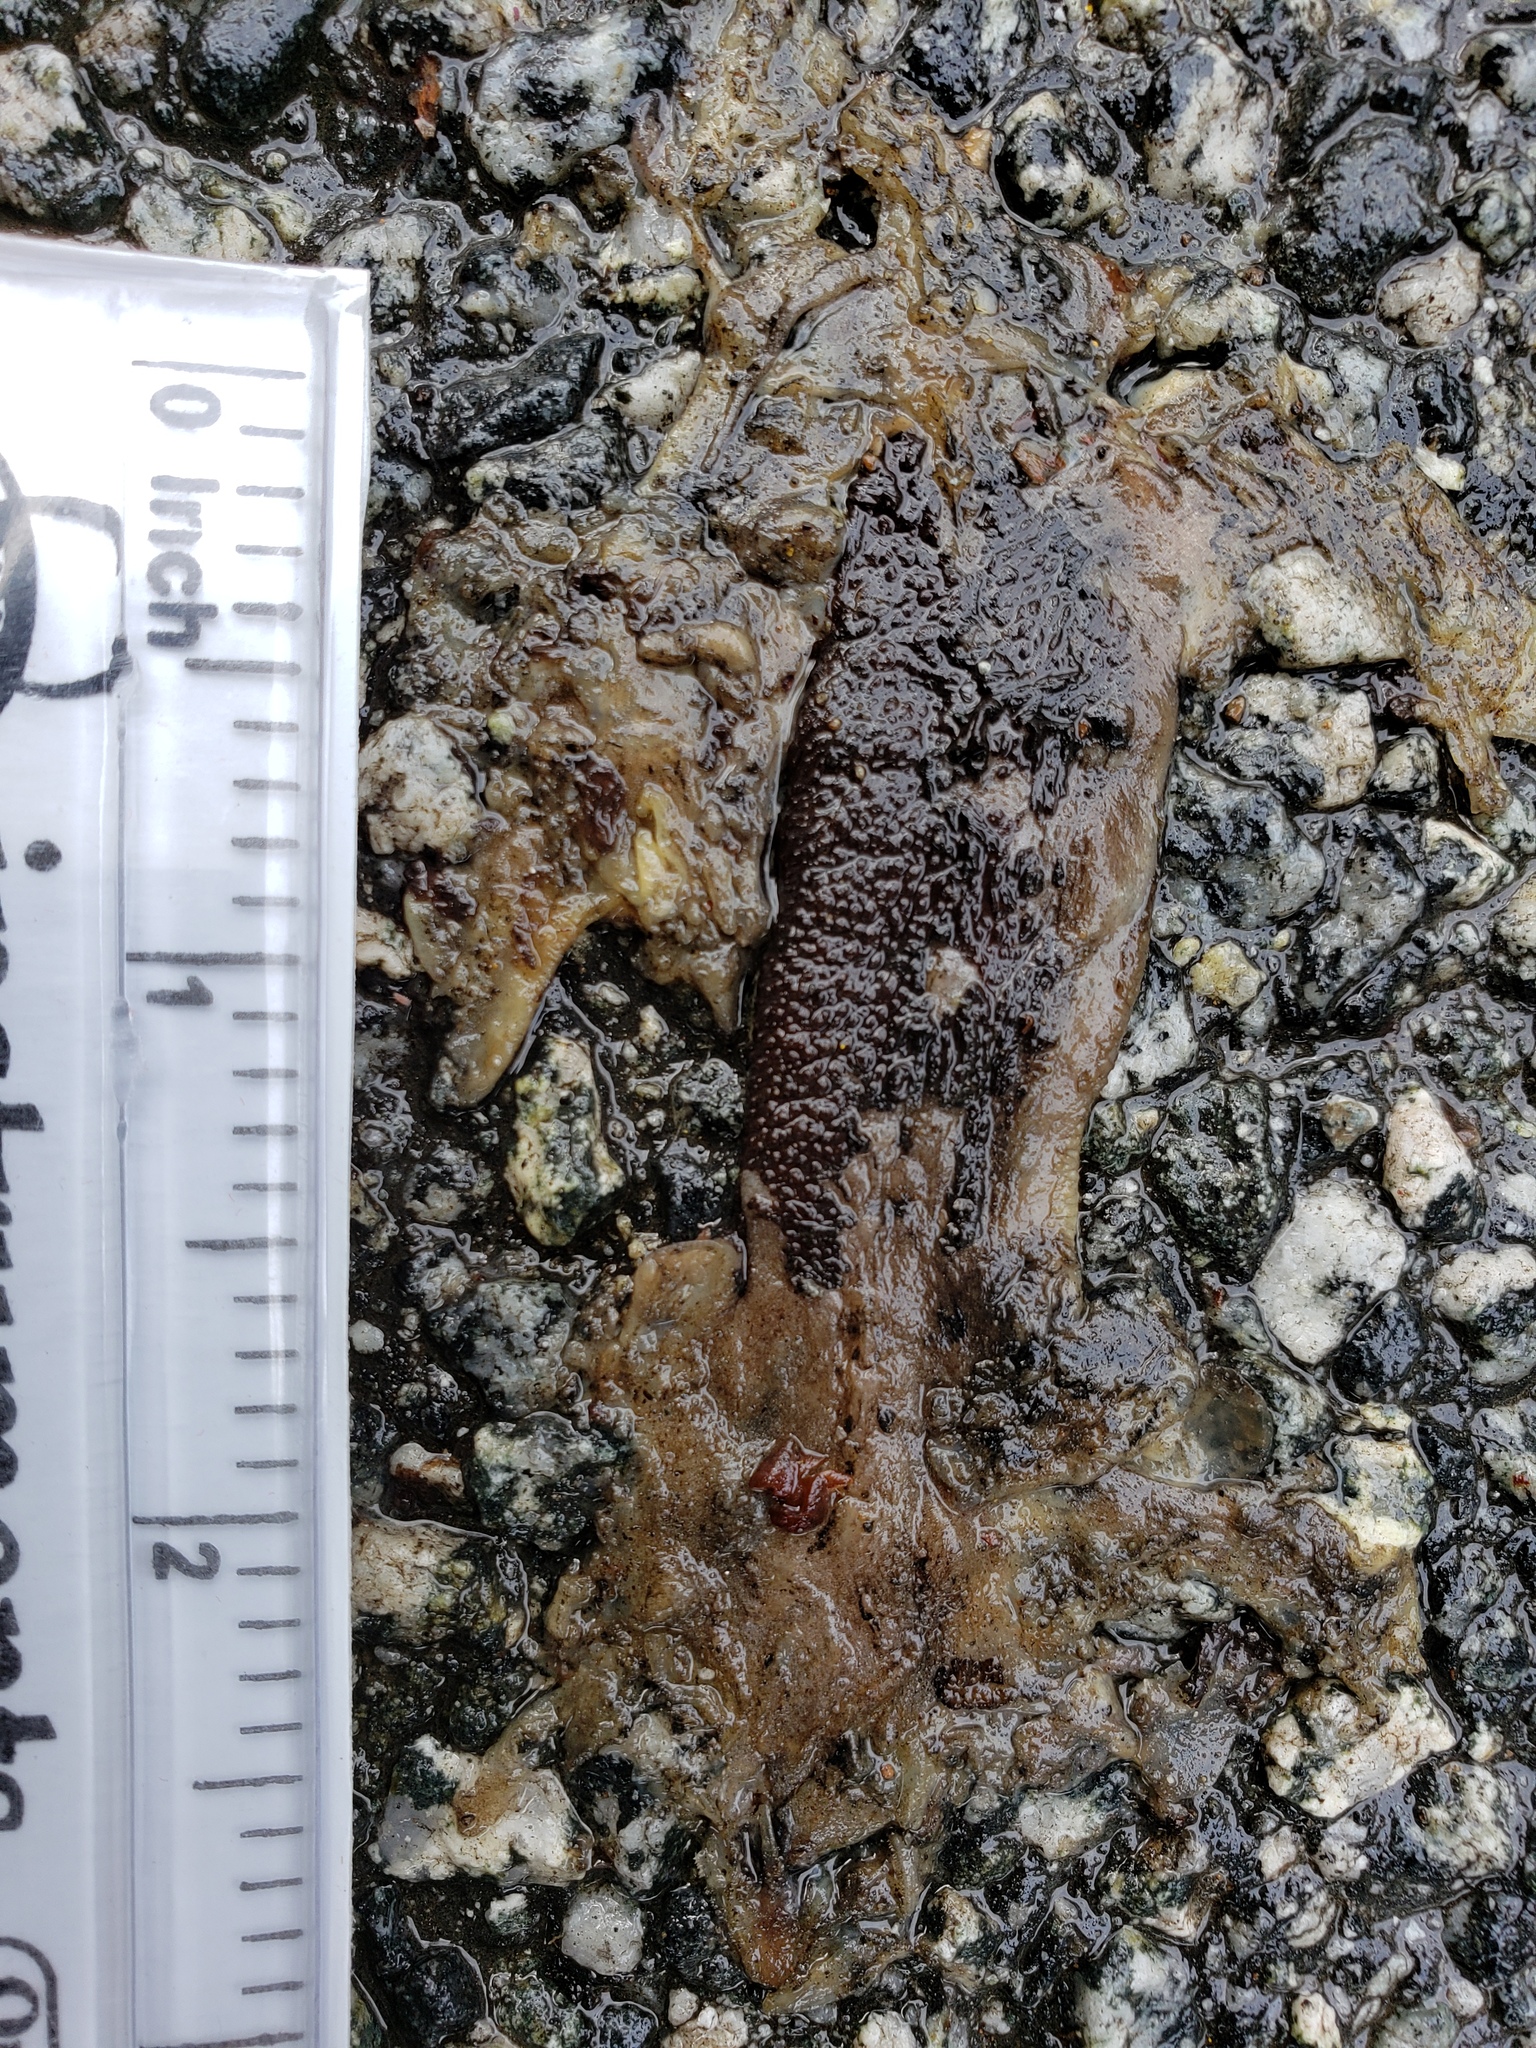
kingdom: Animalia
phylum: Chordata
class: Amphibia
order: Caudata
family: Salamandridae
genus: Taricha
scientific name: Taricha
